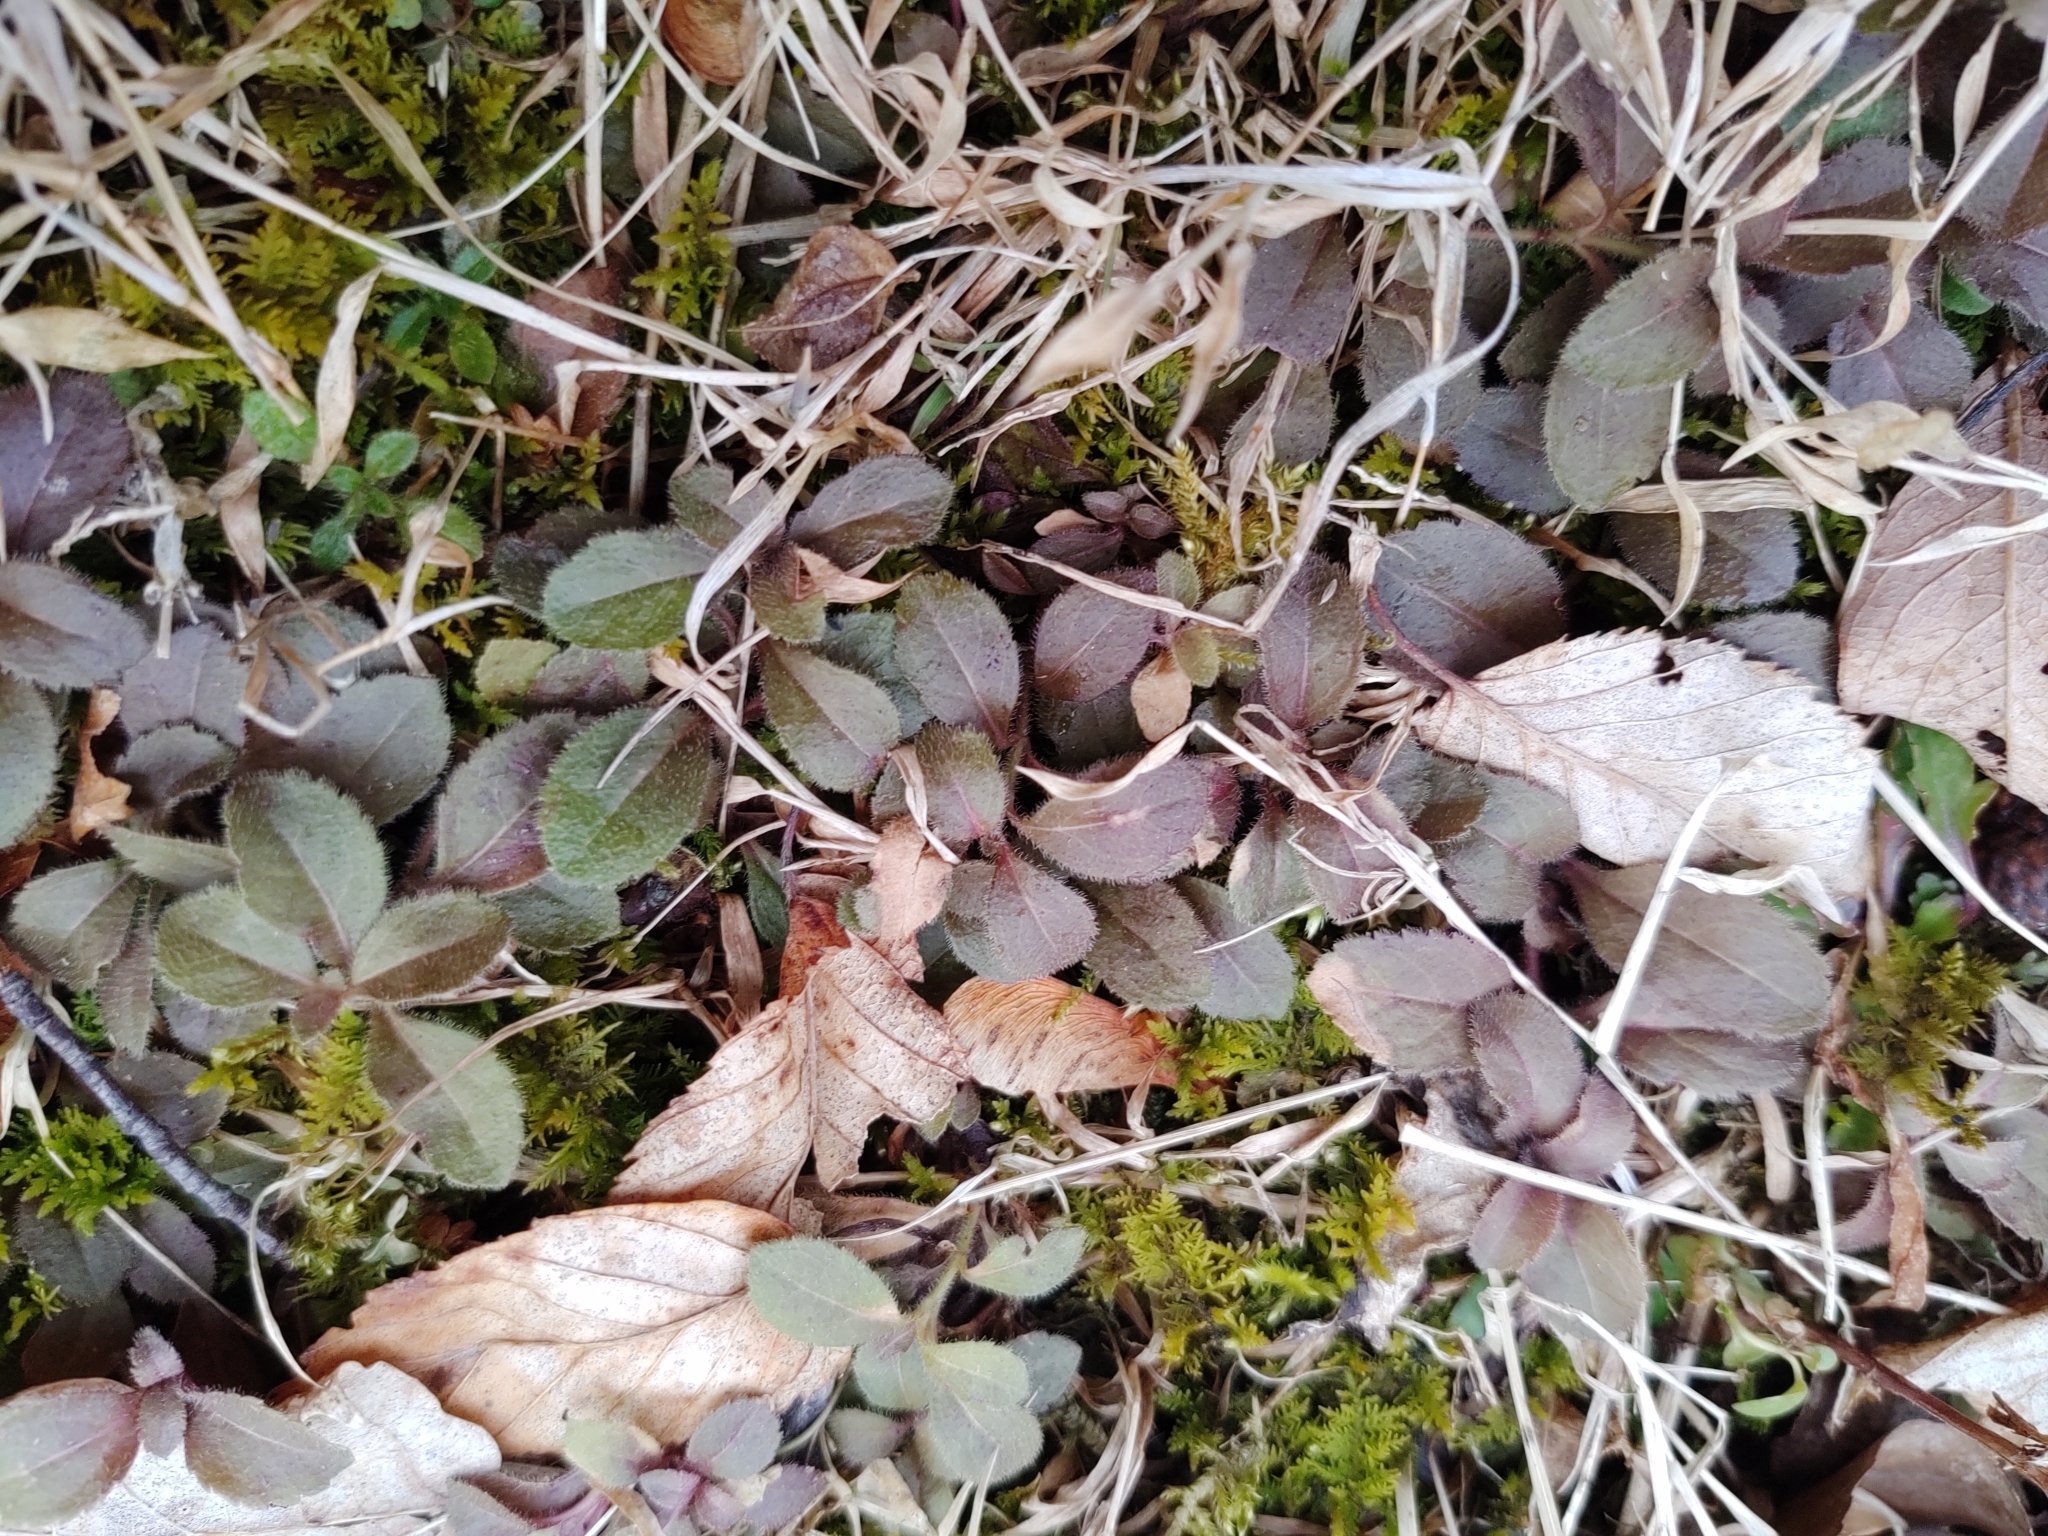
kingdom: Plantae
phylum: Tracheophyta
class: Magnoliopsida
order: Lamiales
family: Plantaginaceae
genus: Veronica
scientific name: Veronica officinalis
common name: Common speedwell
